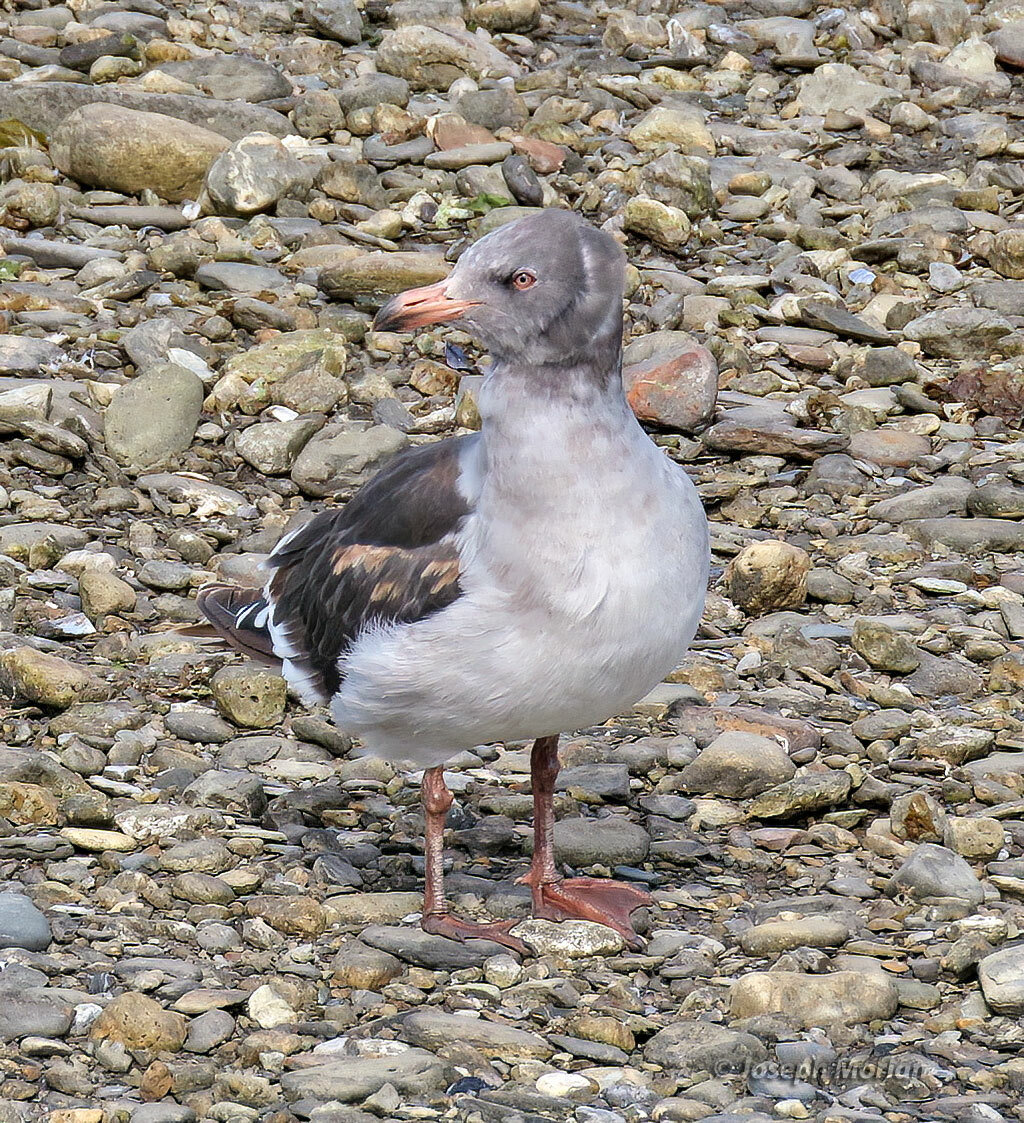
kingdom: Animalia
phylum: Chordata
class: Aves
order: Charadriiformes
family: Laridae
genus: Leucophaeus
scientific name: Leucophaeus scoresbii
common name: Dolphin gull
